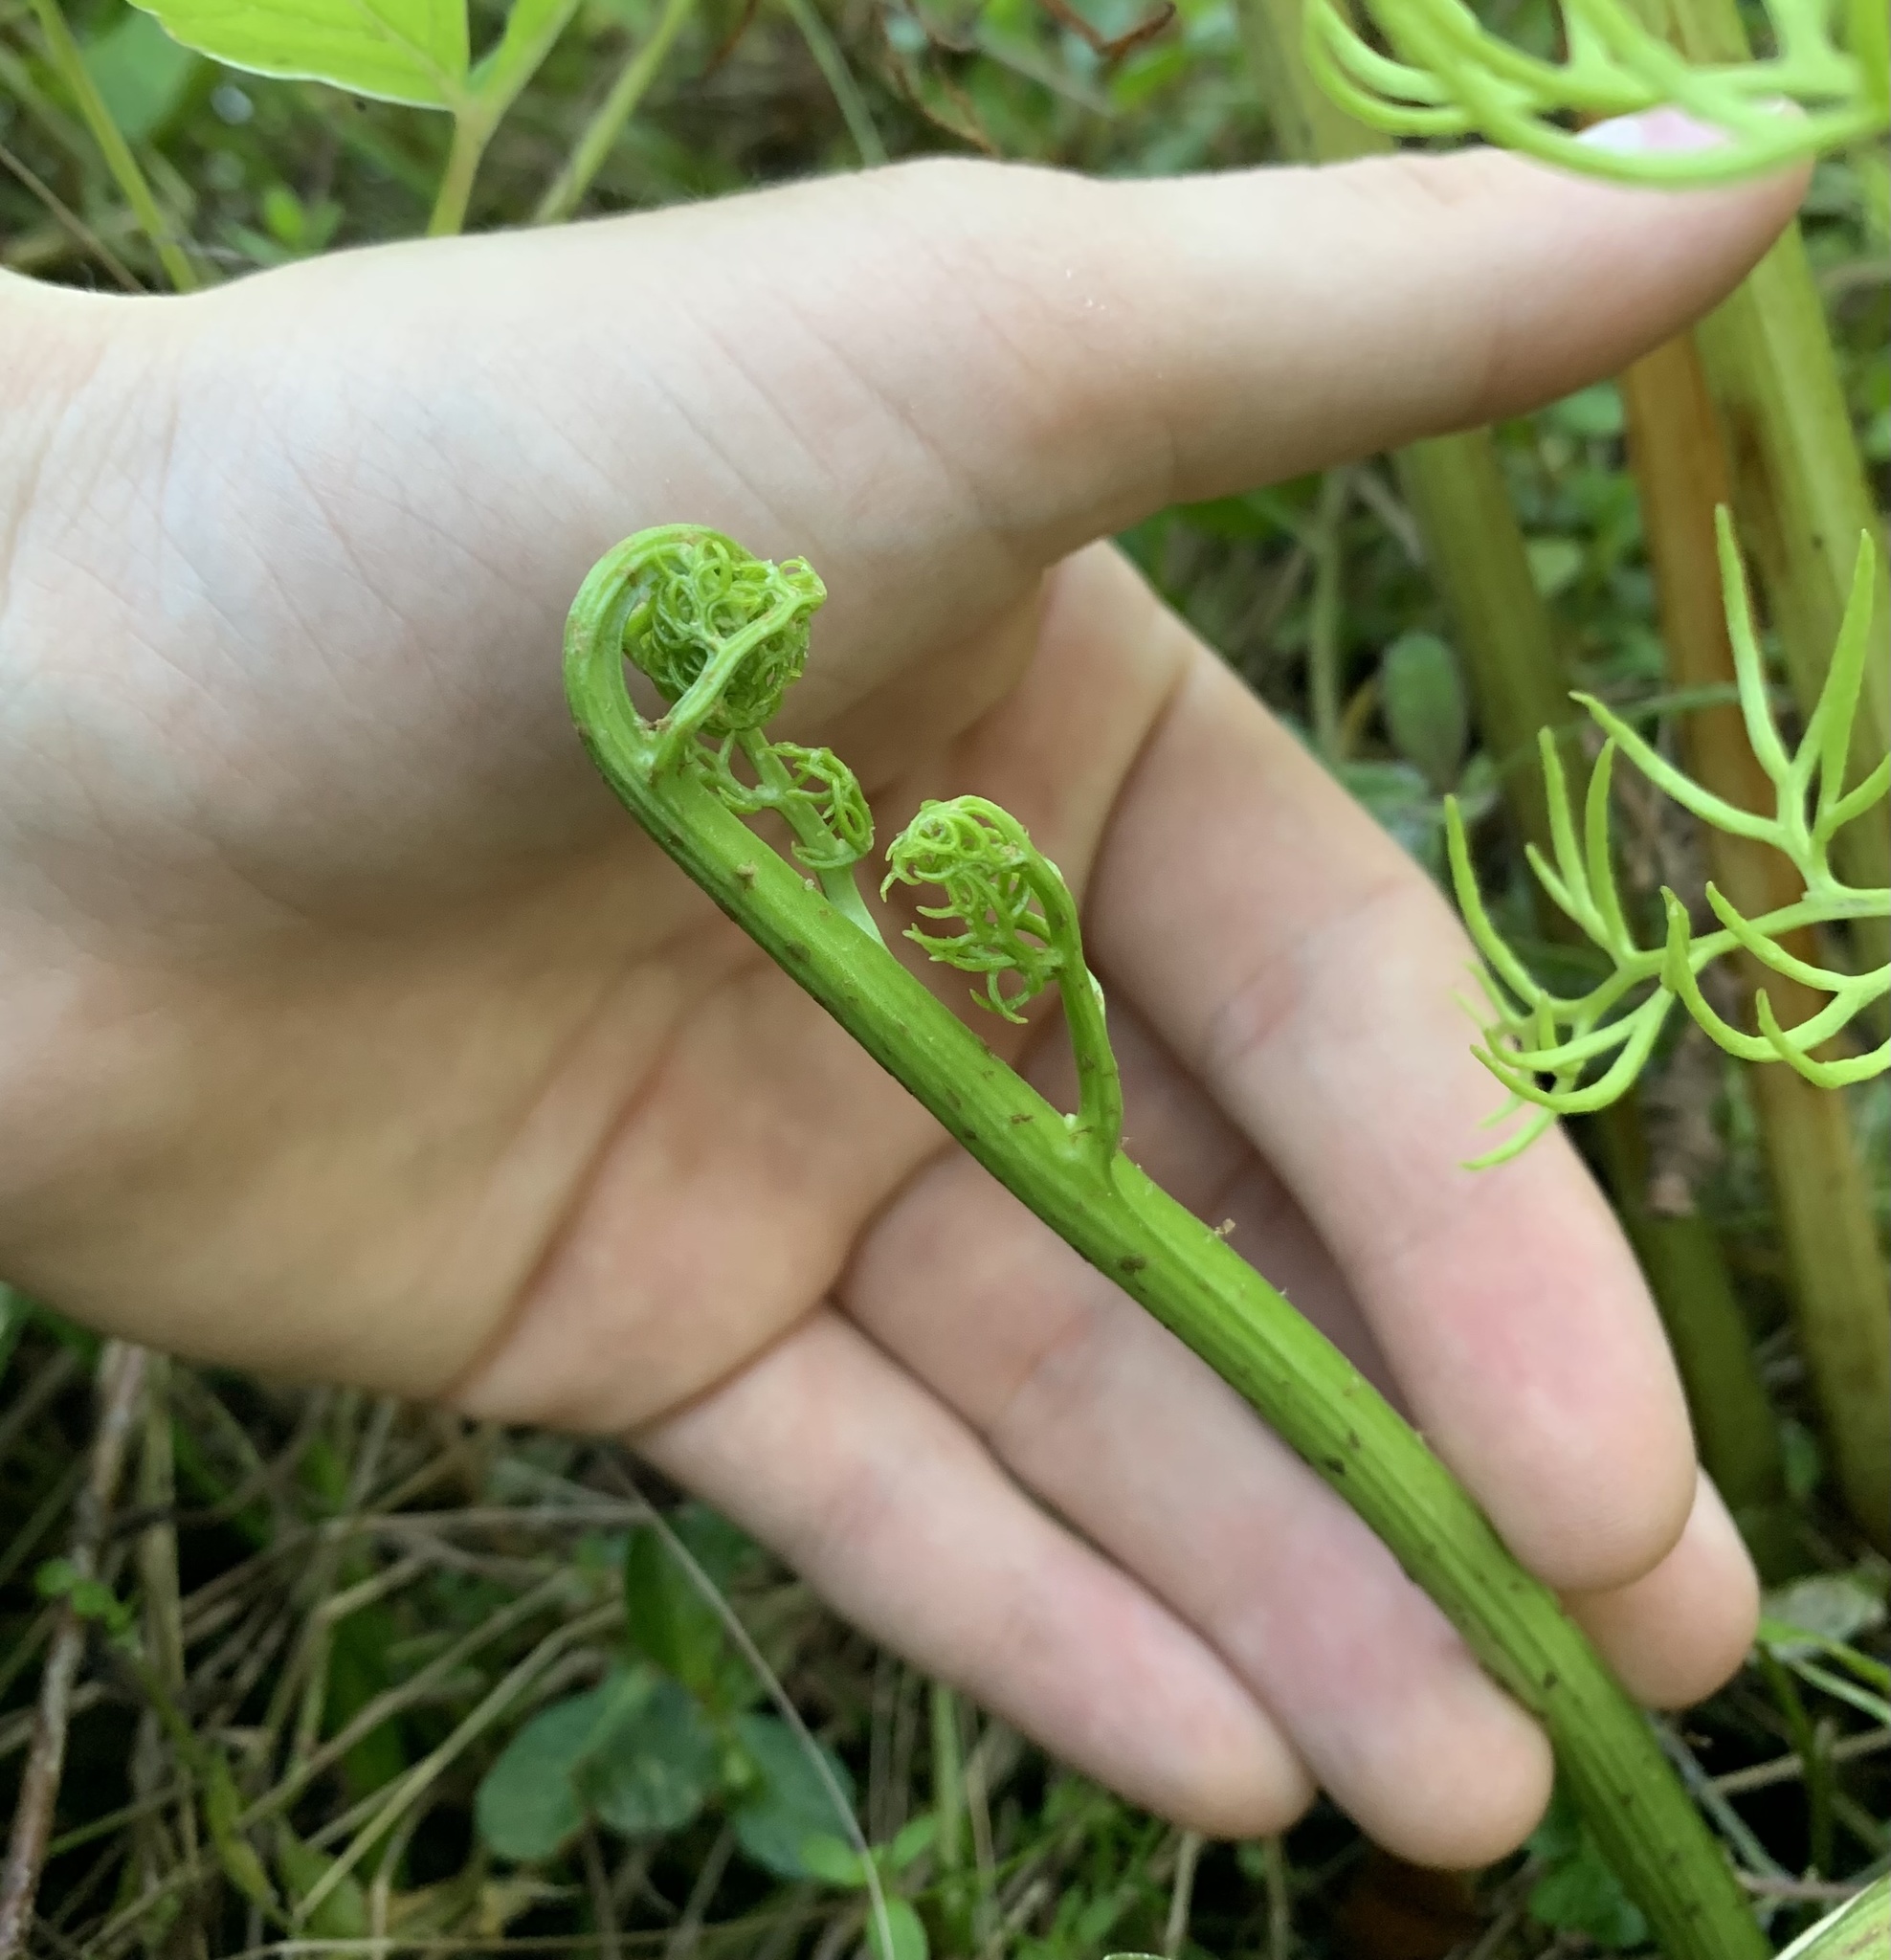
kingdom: Plantae
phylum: Tracheophyta
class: Polypodiopsida
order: Polypodiales
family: Pteridaceae
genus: Ceratopteris
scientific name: Ceratopteris thalictroides
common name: Water fern
